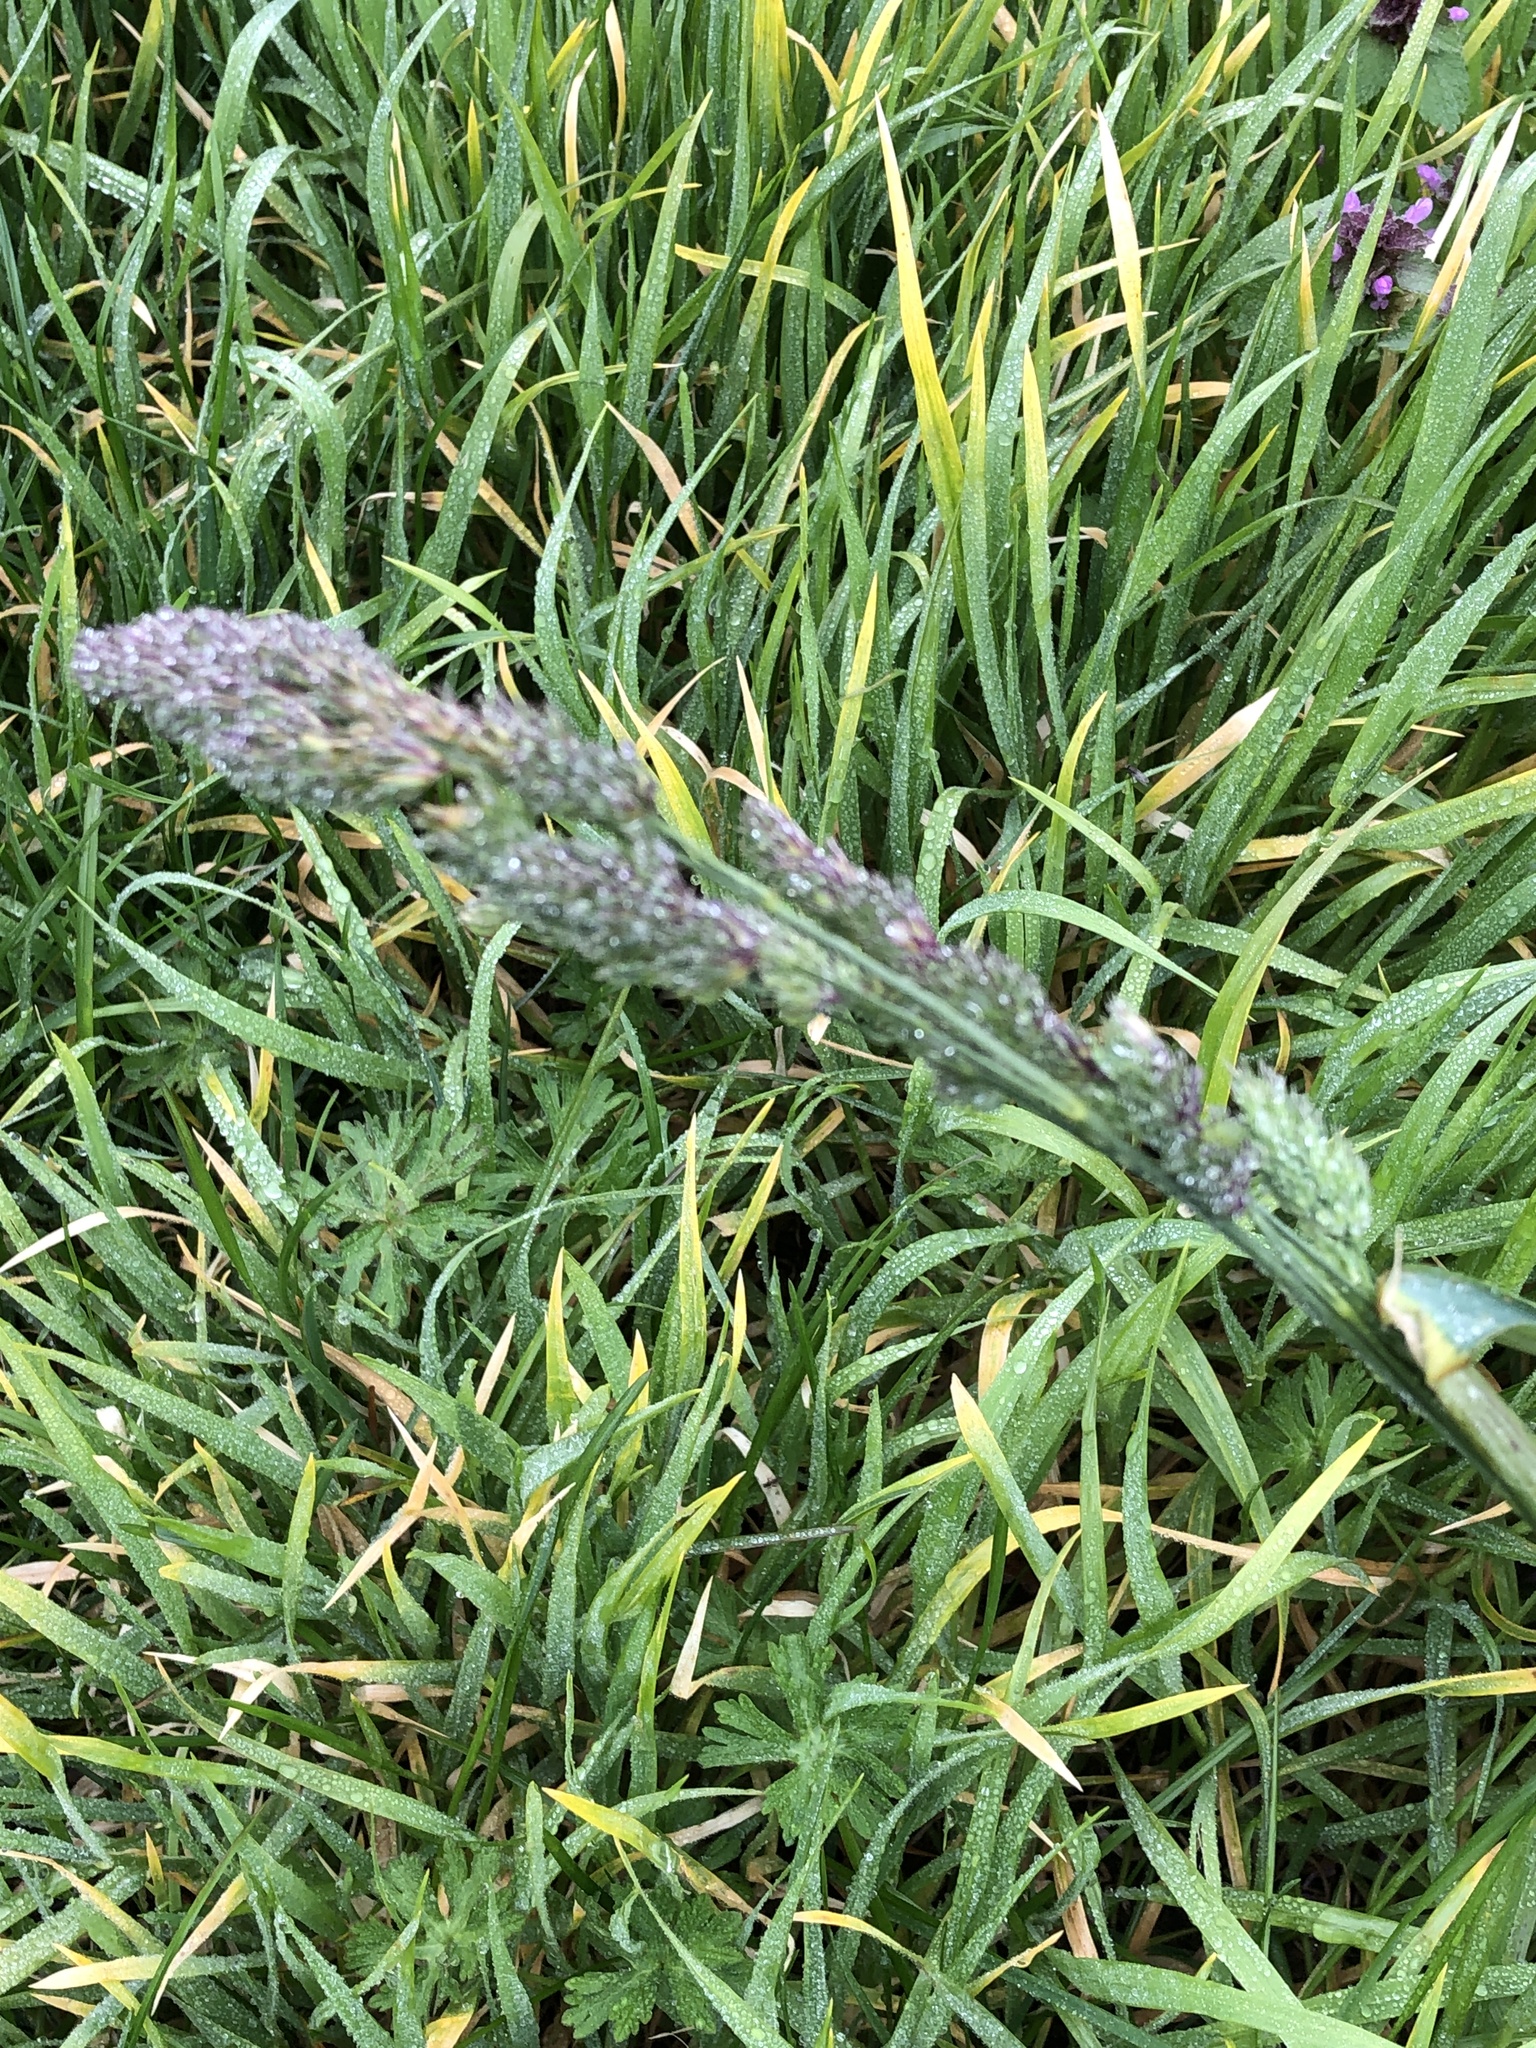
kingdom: Plantae
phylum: Tracheophyta
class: Liliopsida
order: Poales
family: Poaceae
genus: Dactylis
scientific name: Dactylis glomerata
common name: Orchardgrass
